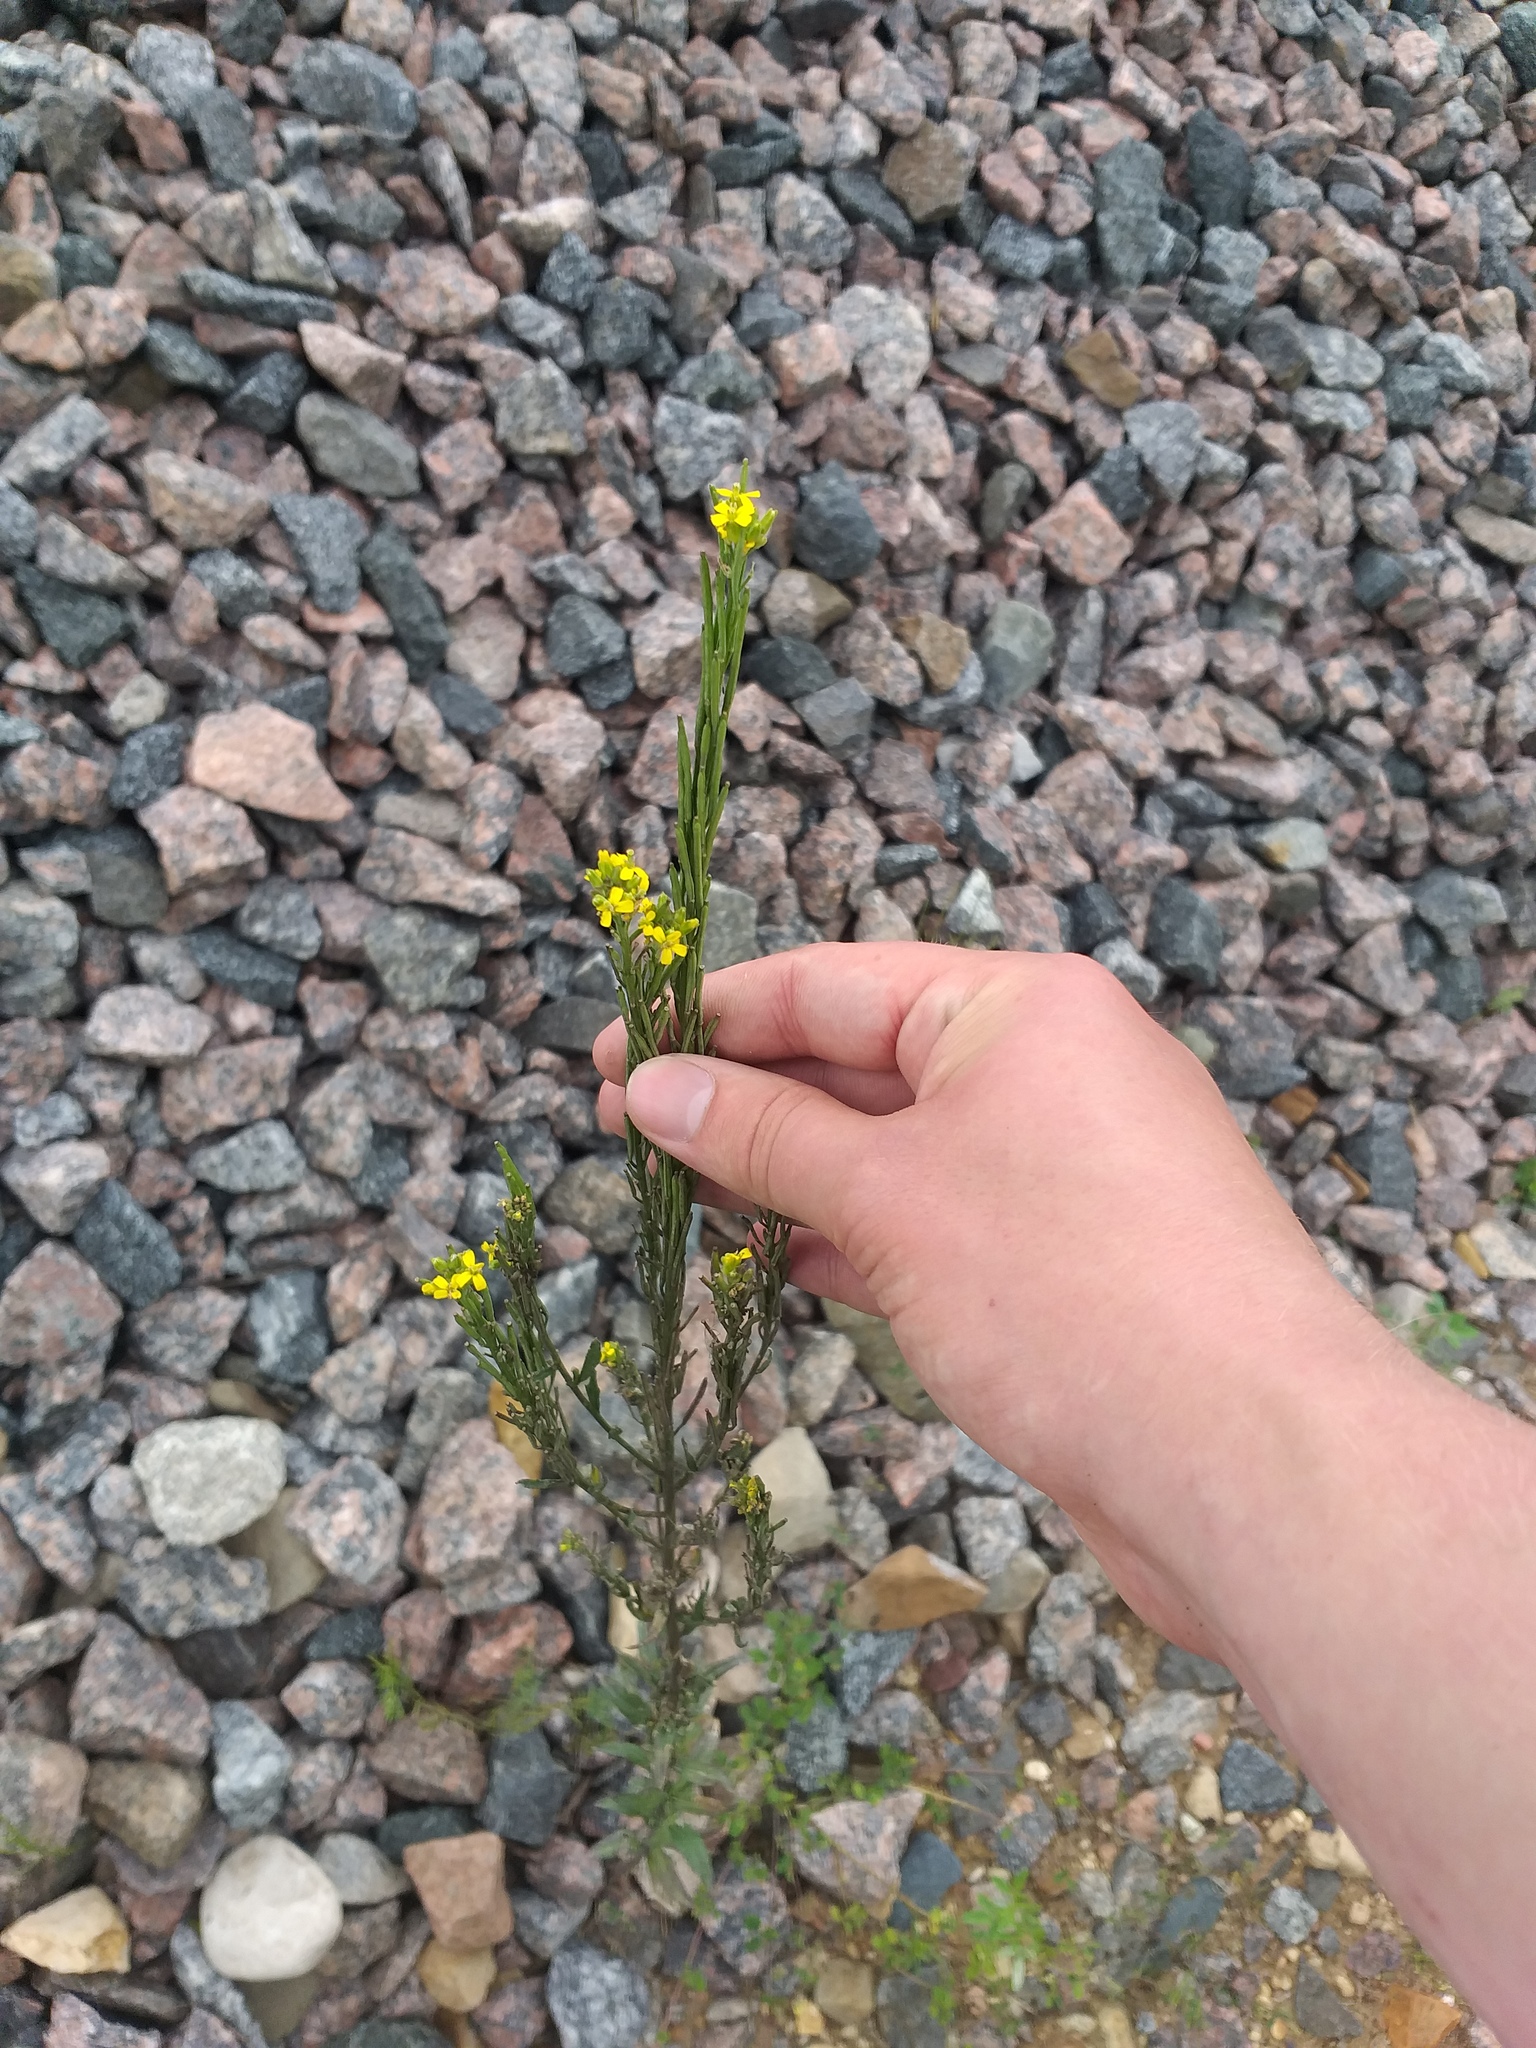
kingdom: Plantae
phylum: Tracheophyta
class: Magnoliopsida
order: Brassicales
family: Brassicaceae
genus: Erysimum
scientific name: Erysimum hieraciifolium
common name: European wallflower
